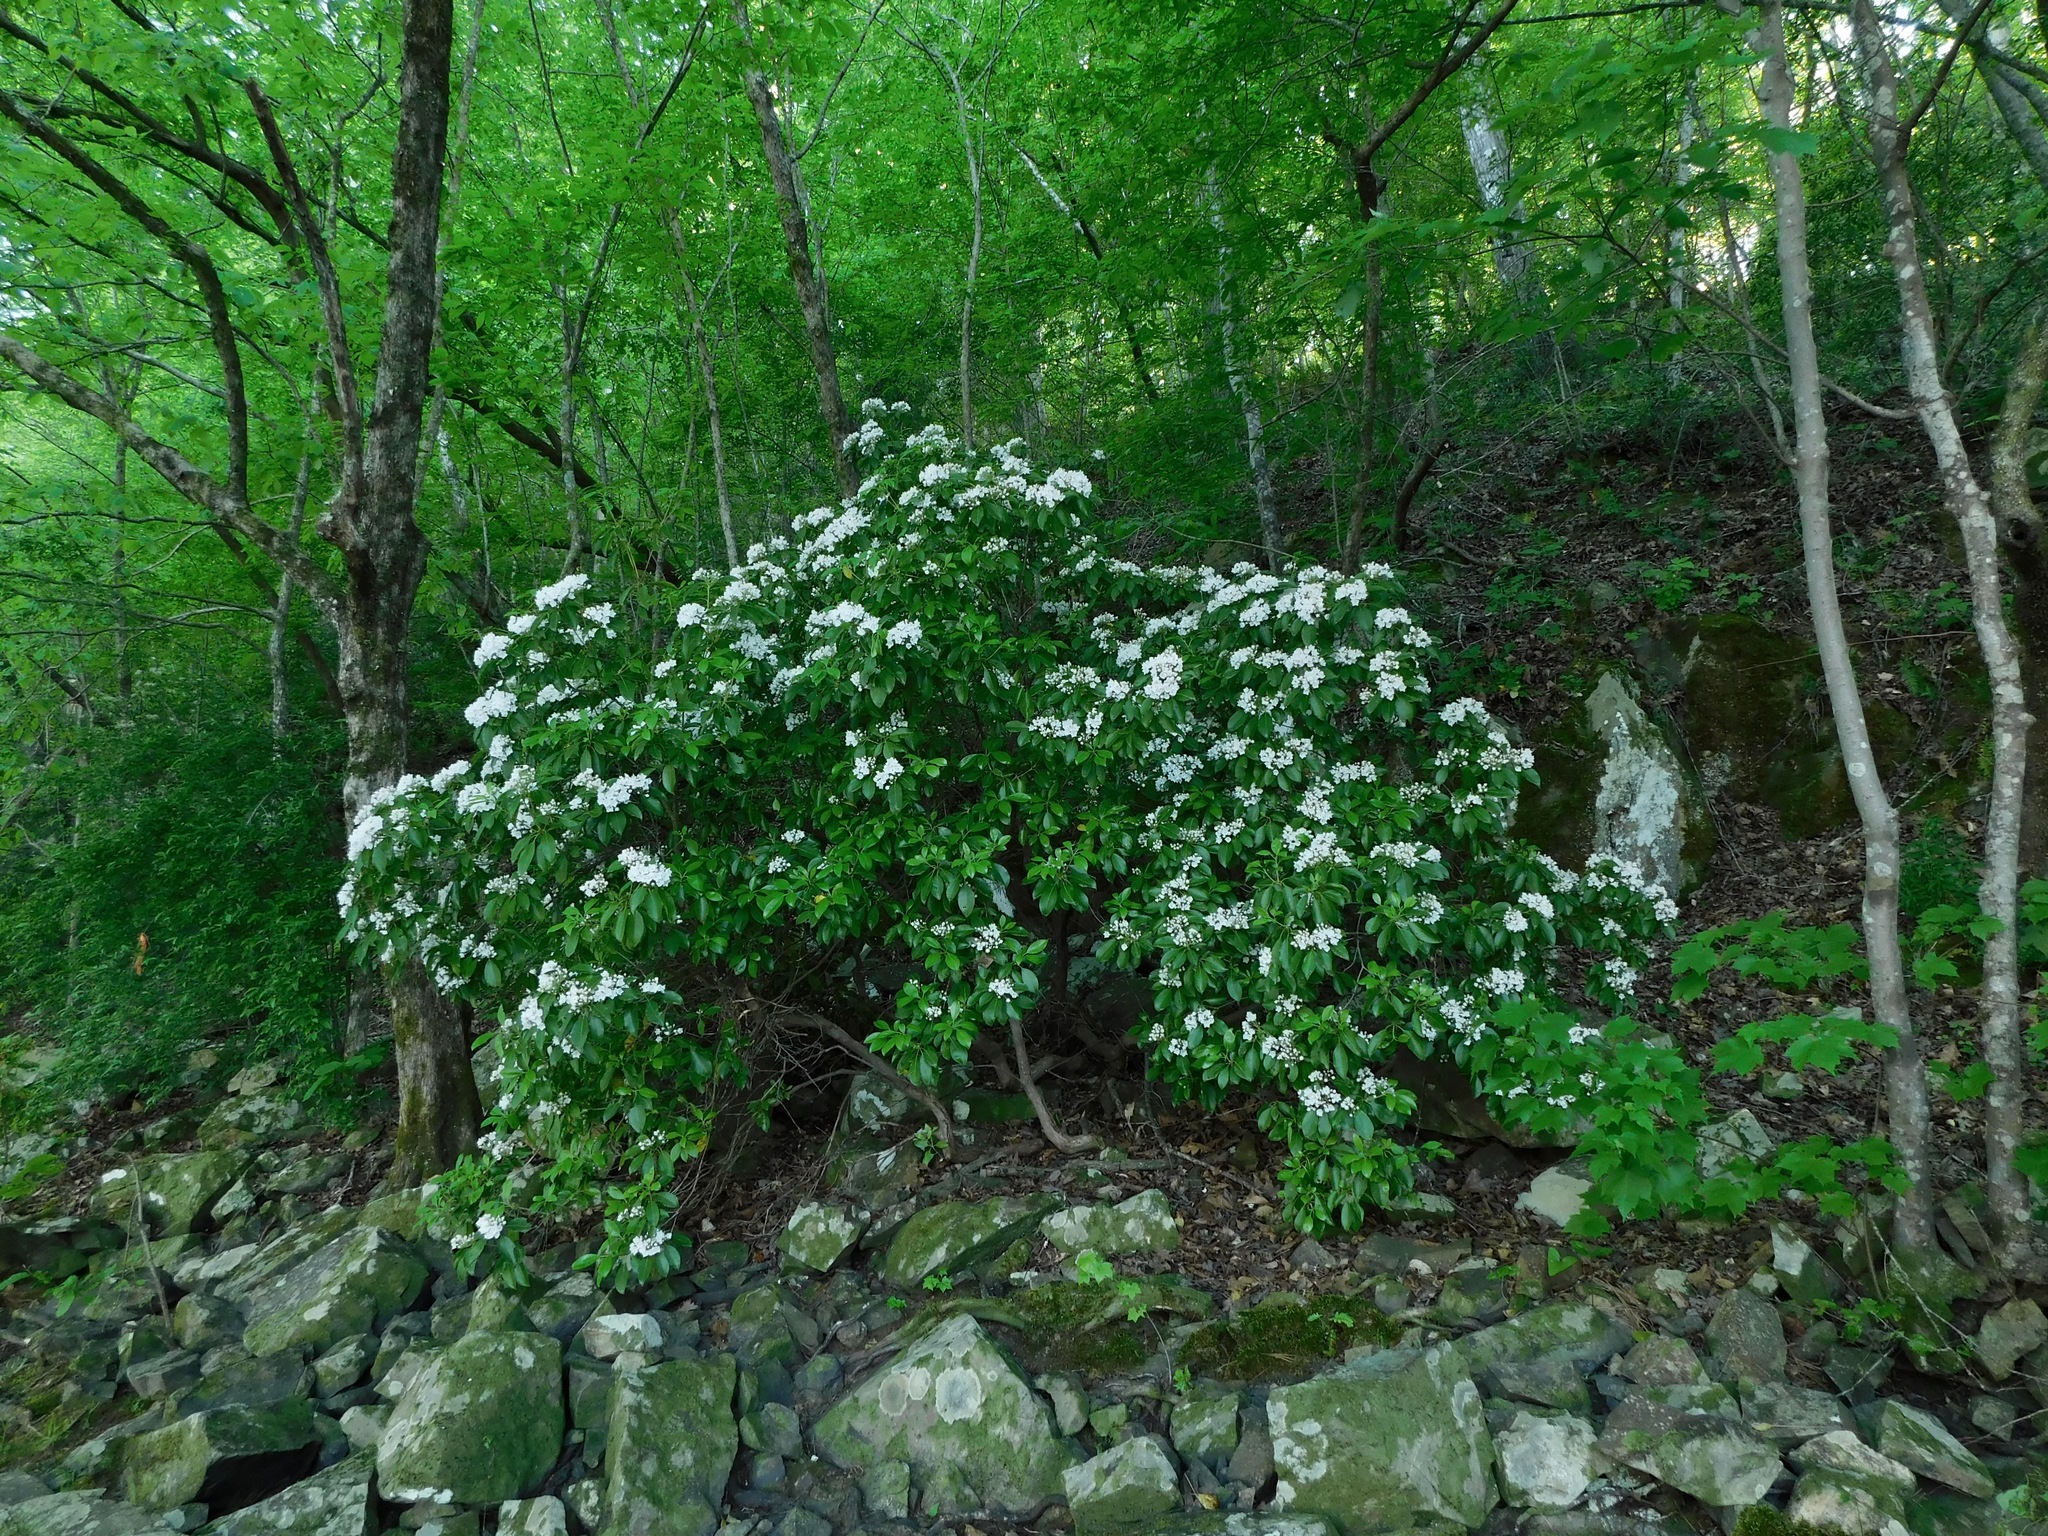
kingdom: Plantae
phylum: Tracheophyta
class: Magnoliopsida
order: Ericales
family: Ericaceae
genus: Kalmia
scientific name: Kalmia latifolia
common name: Mountain-laurel
